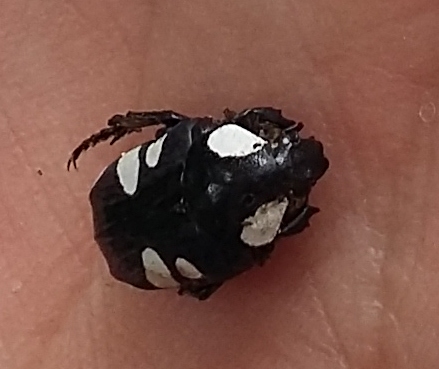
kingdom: Animalia
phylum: Arthropoda
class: Insecta
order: Coleoptera
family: Scarabaeidae
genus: Discopeltis
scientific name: Discopeltis tricolor
